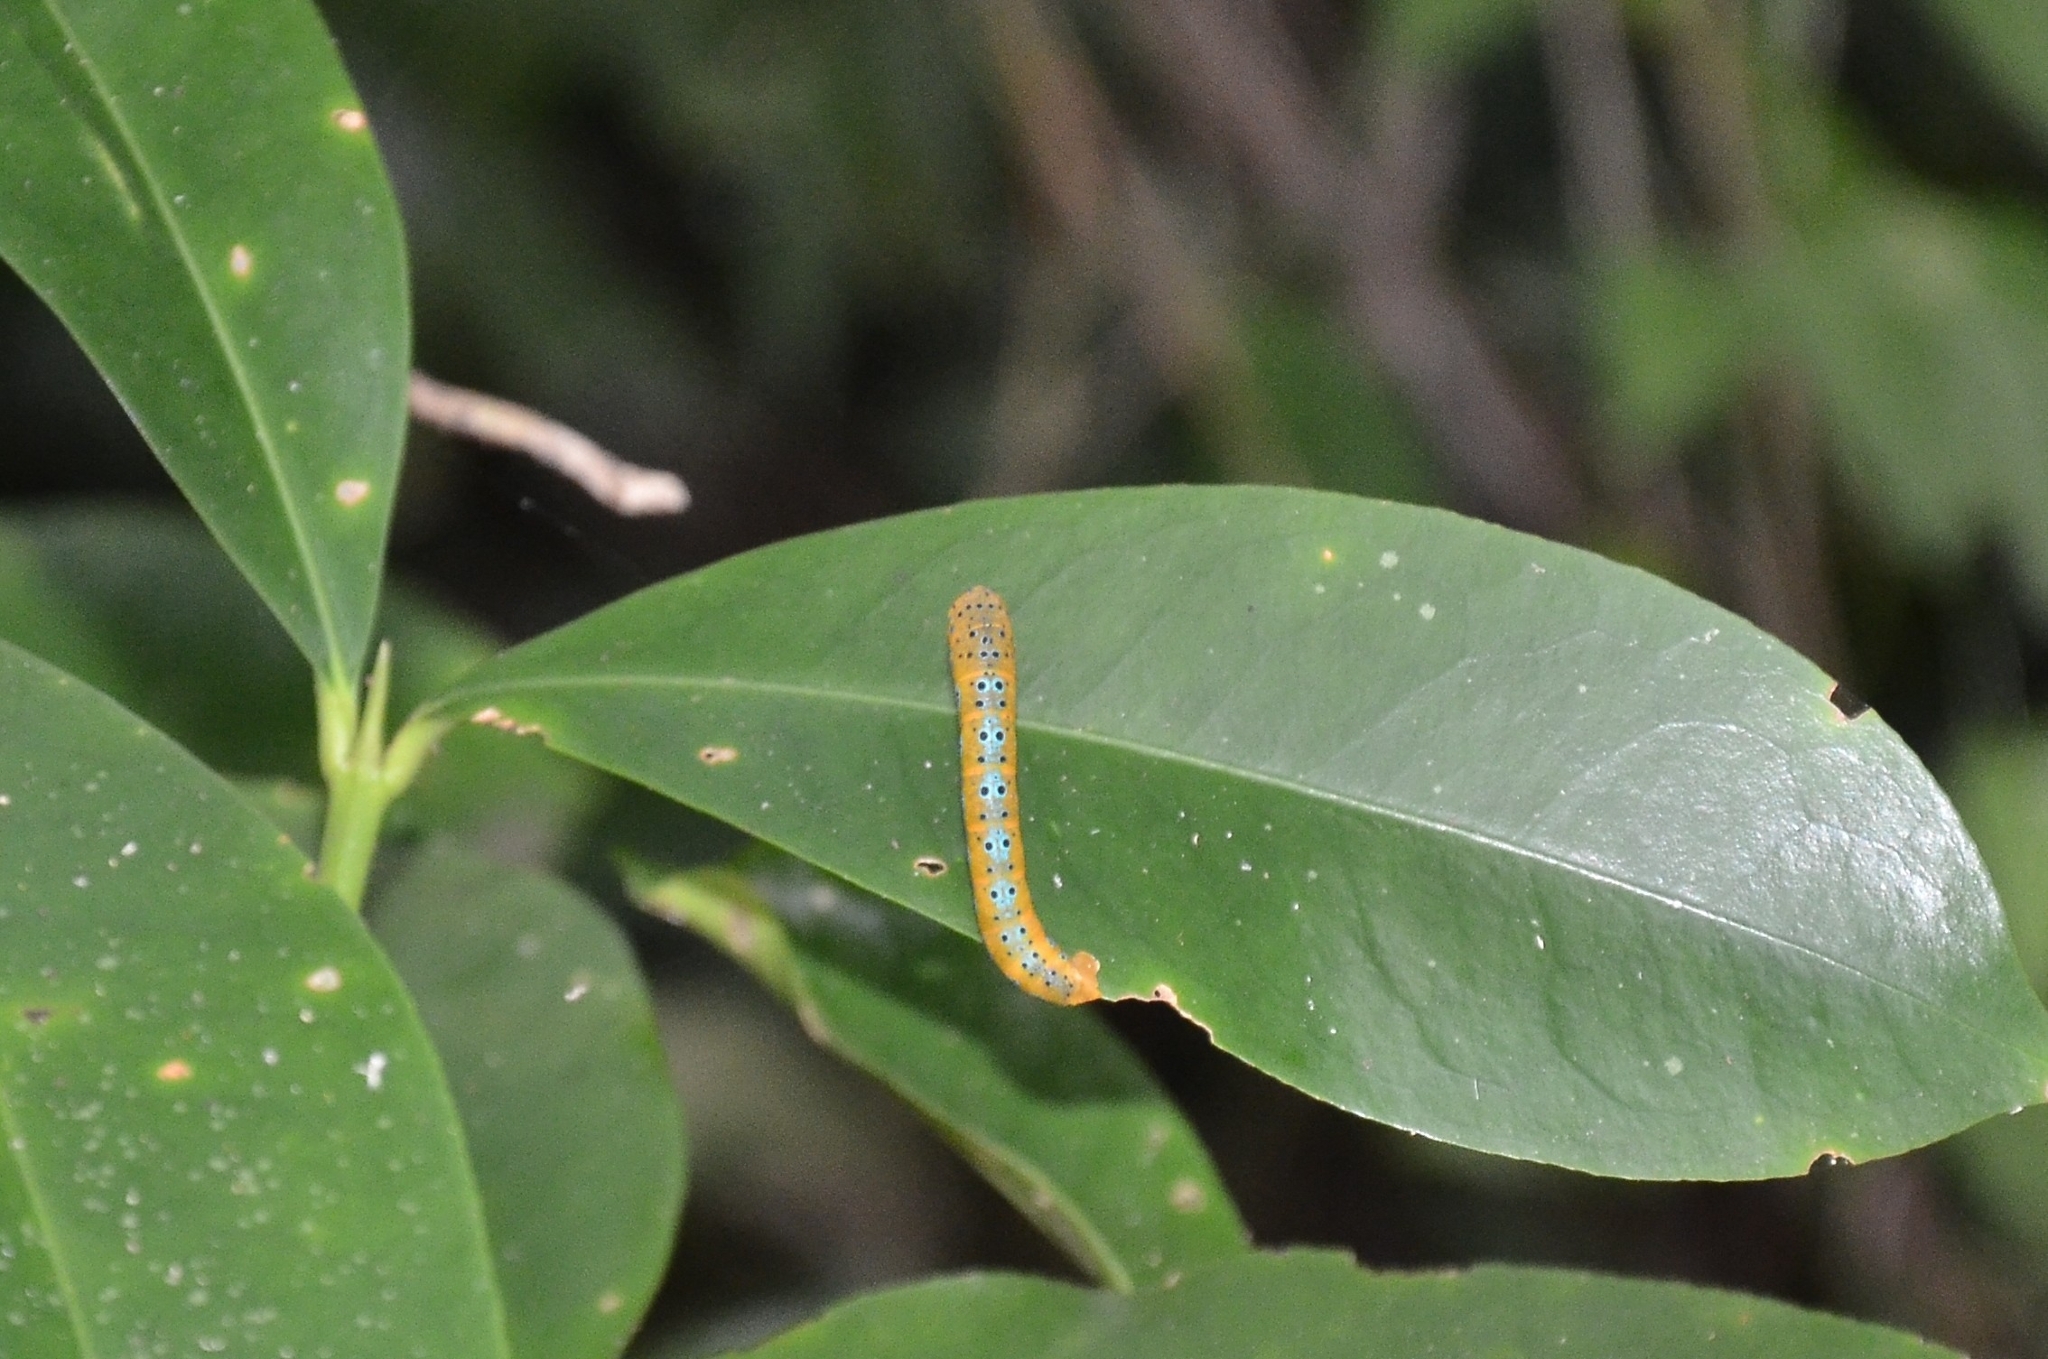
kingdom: Animalia
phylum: Arthropoda
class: Insecta
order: Lepidoptera
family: Geometridae
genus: Dysphania
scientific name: Dysphania percota
